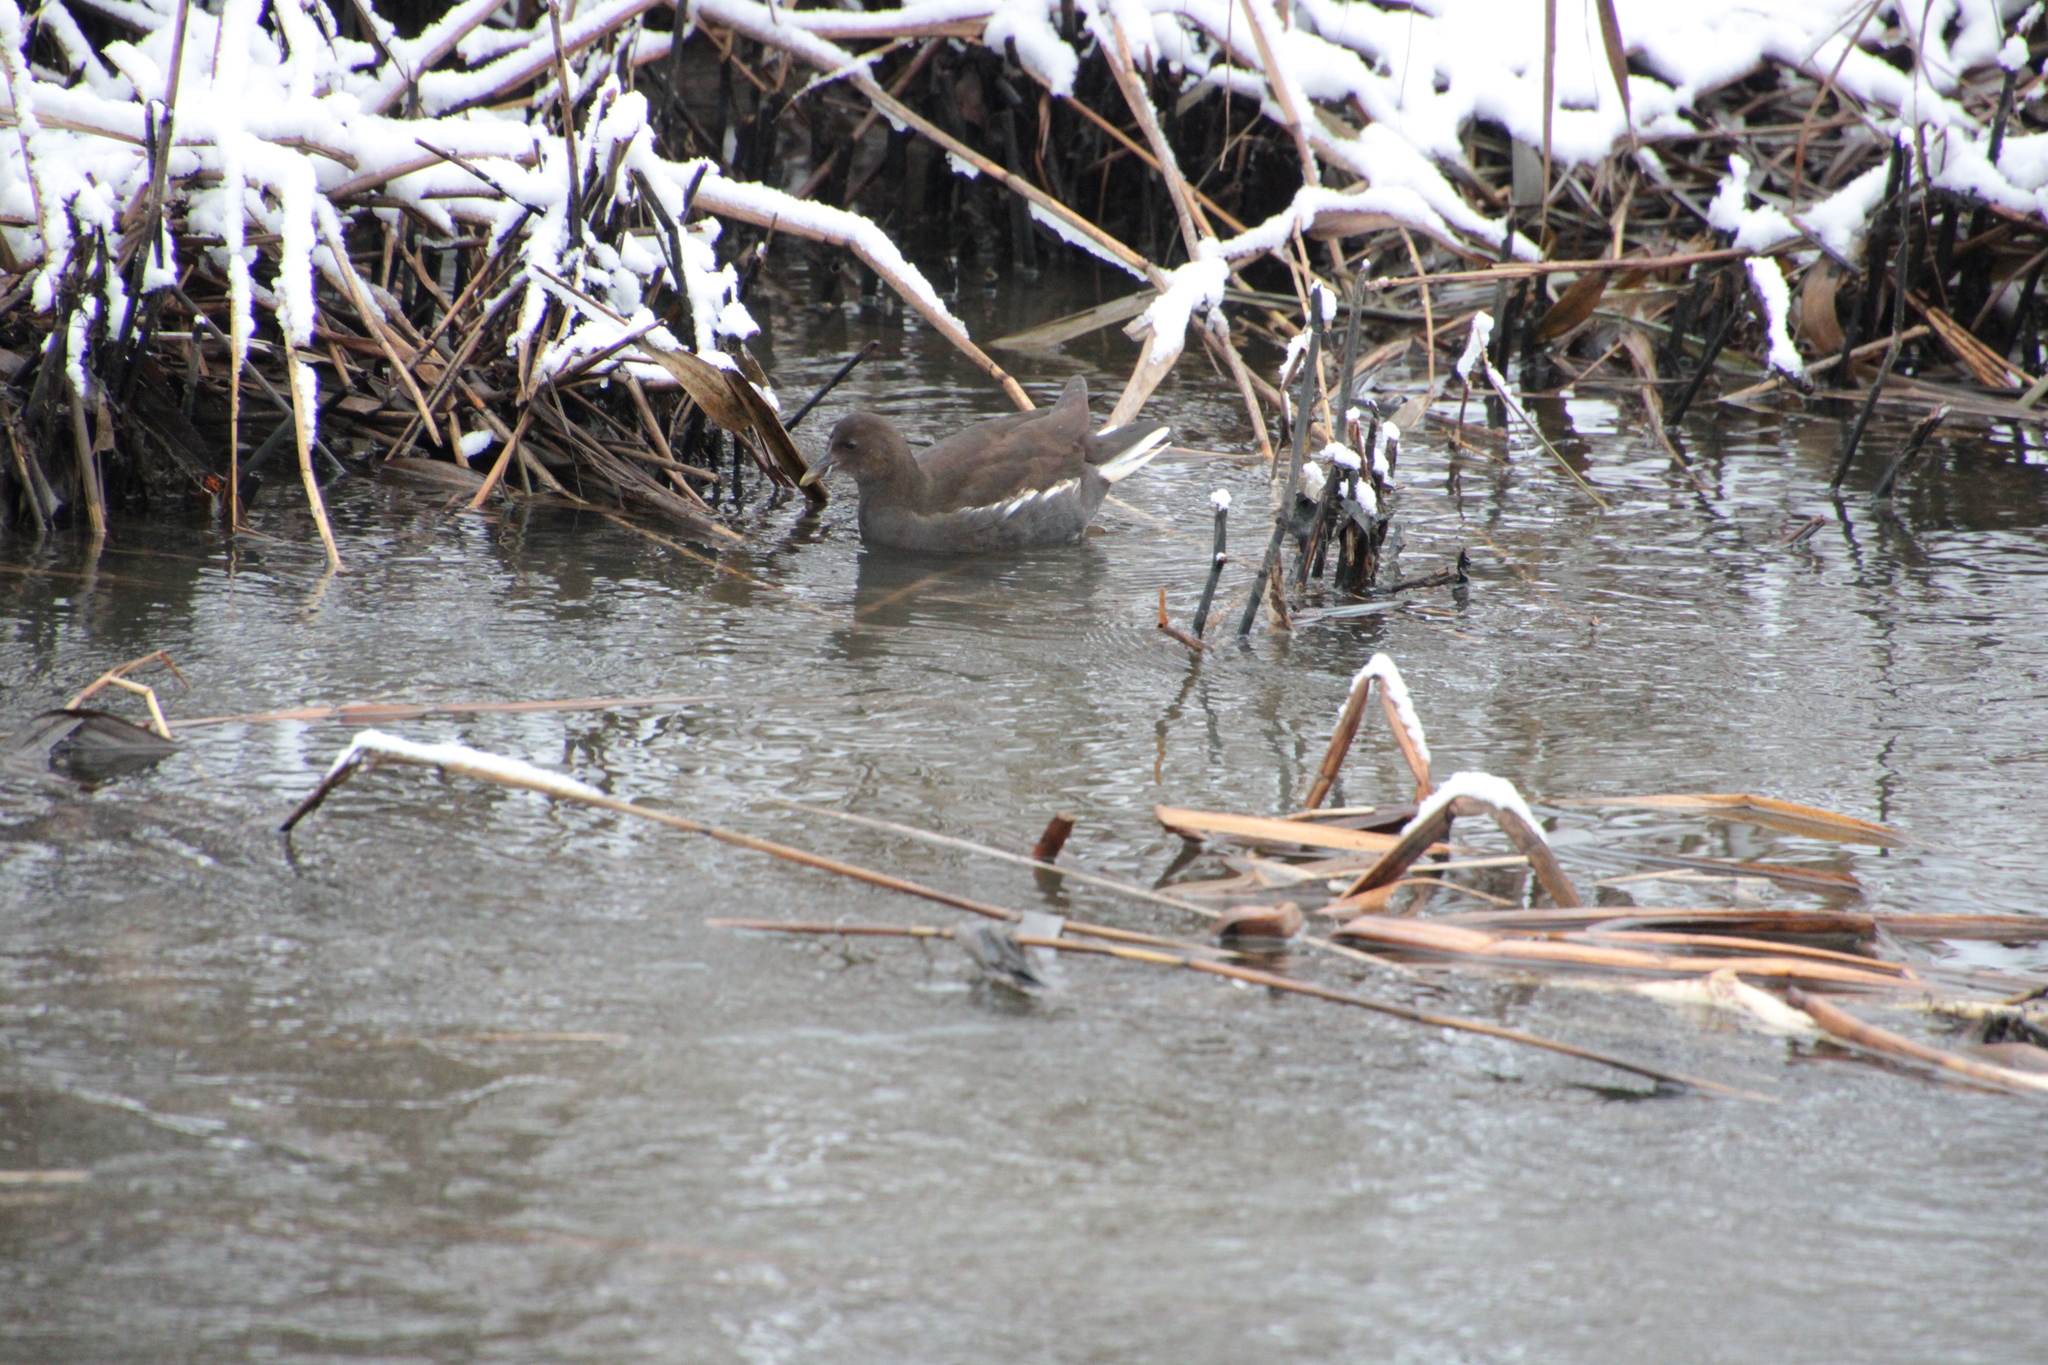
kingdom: Animalia
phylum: Chordata
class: Aves
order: Gruiformes
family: Rallidae
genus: Gallinula
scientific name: Gallinula chloropus
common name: Common moorhen
